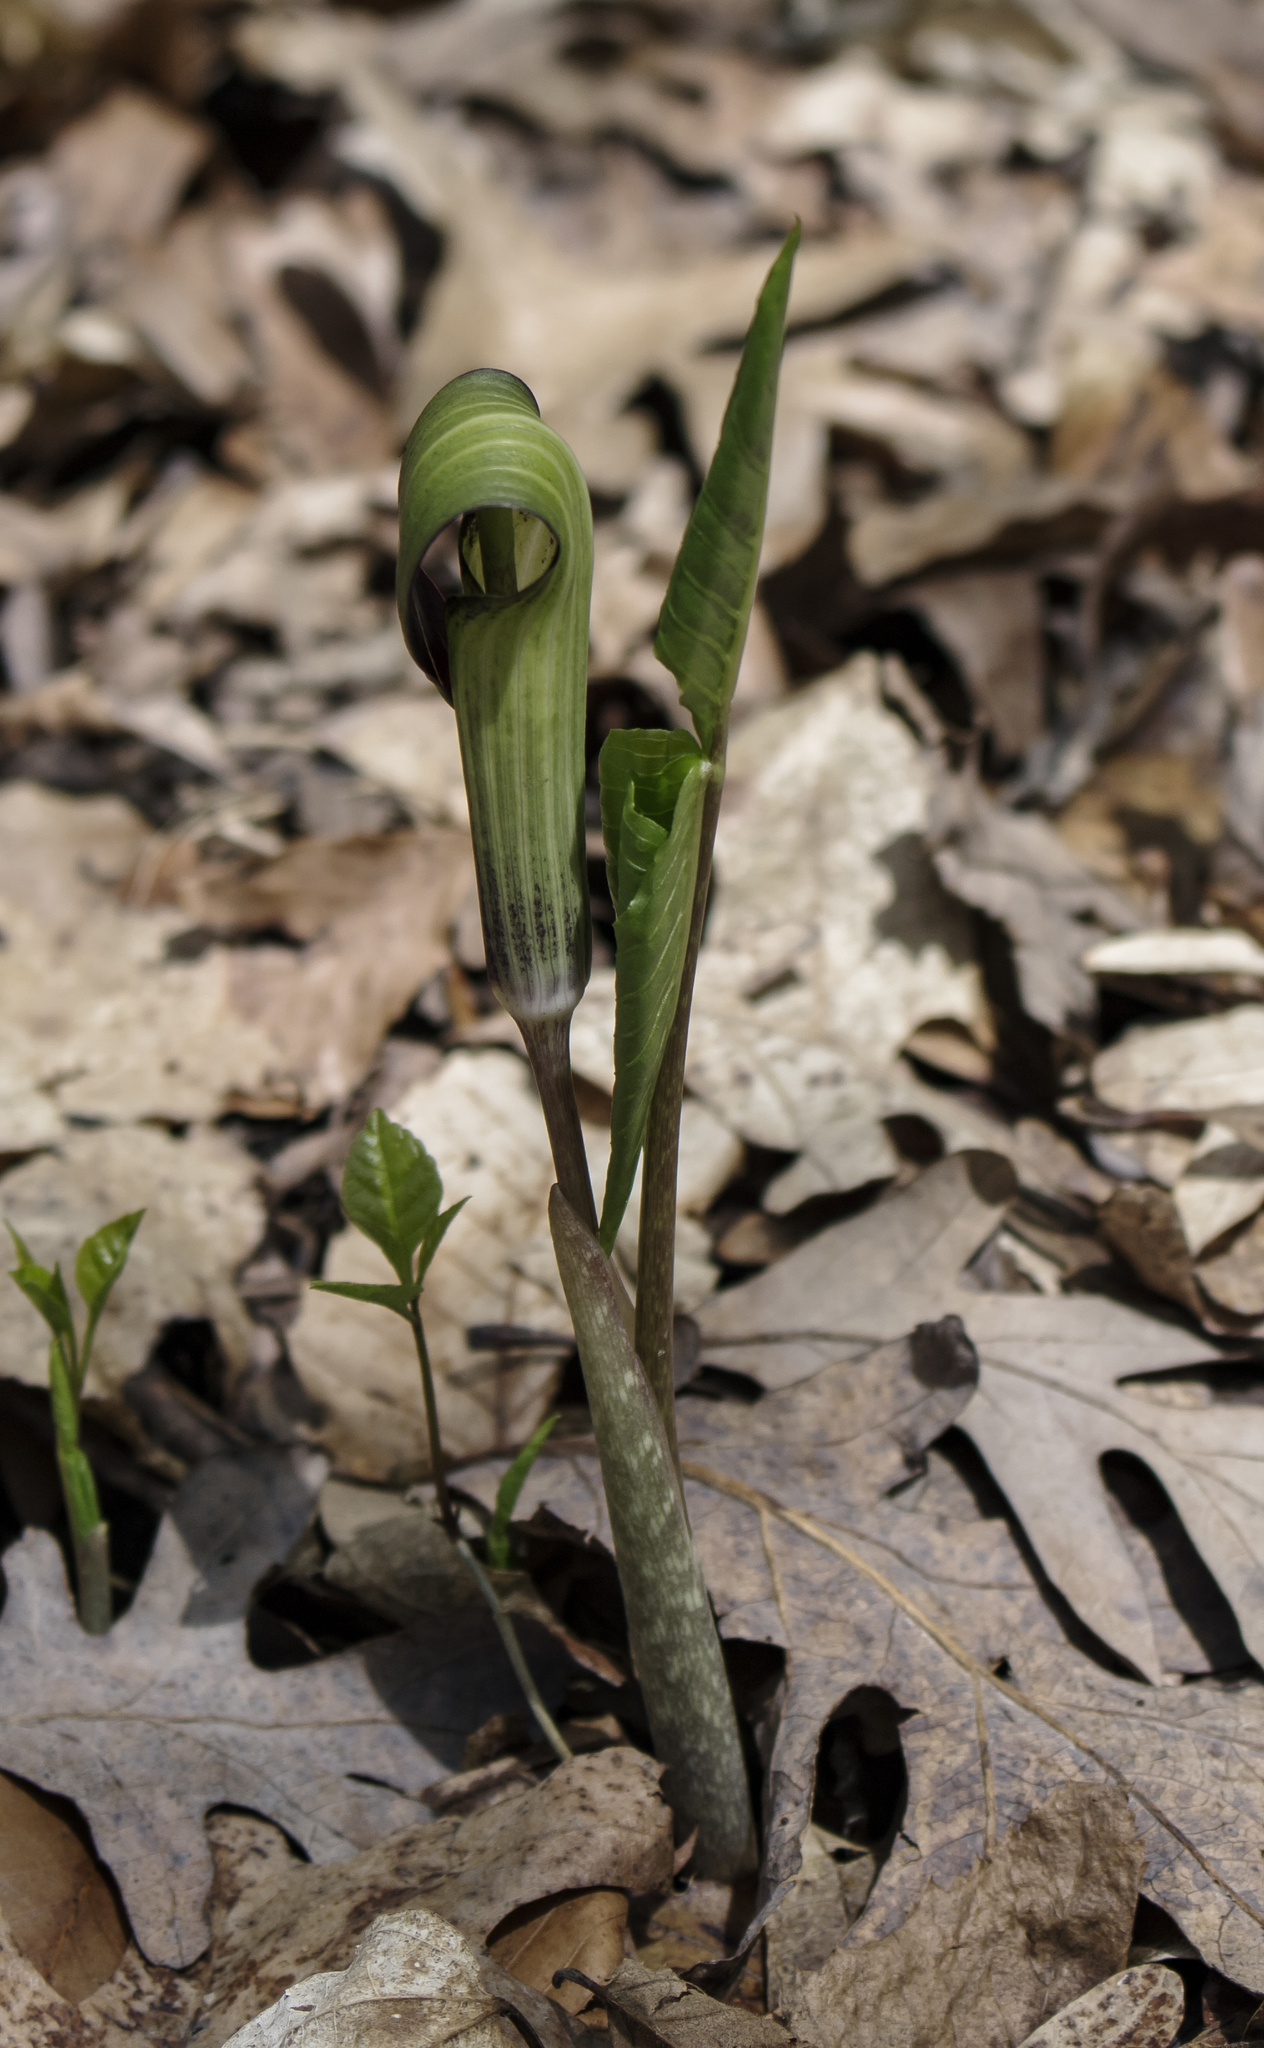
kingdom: Plantae
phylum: Tracheophyta
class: Liliopsida
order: Alismatales
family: Araceae
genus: Arisaema
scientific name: Arisaema triphyllum
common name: Jack-in-the-pulpit
